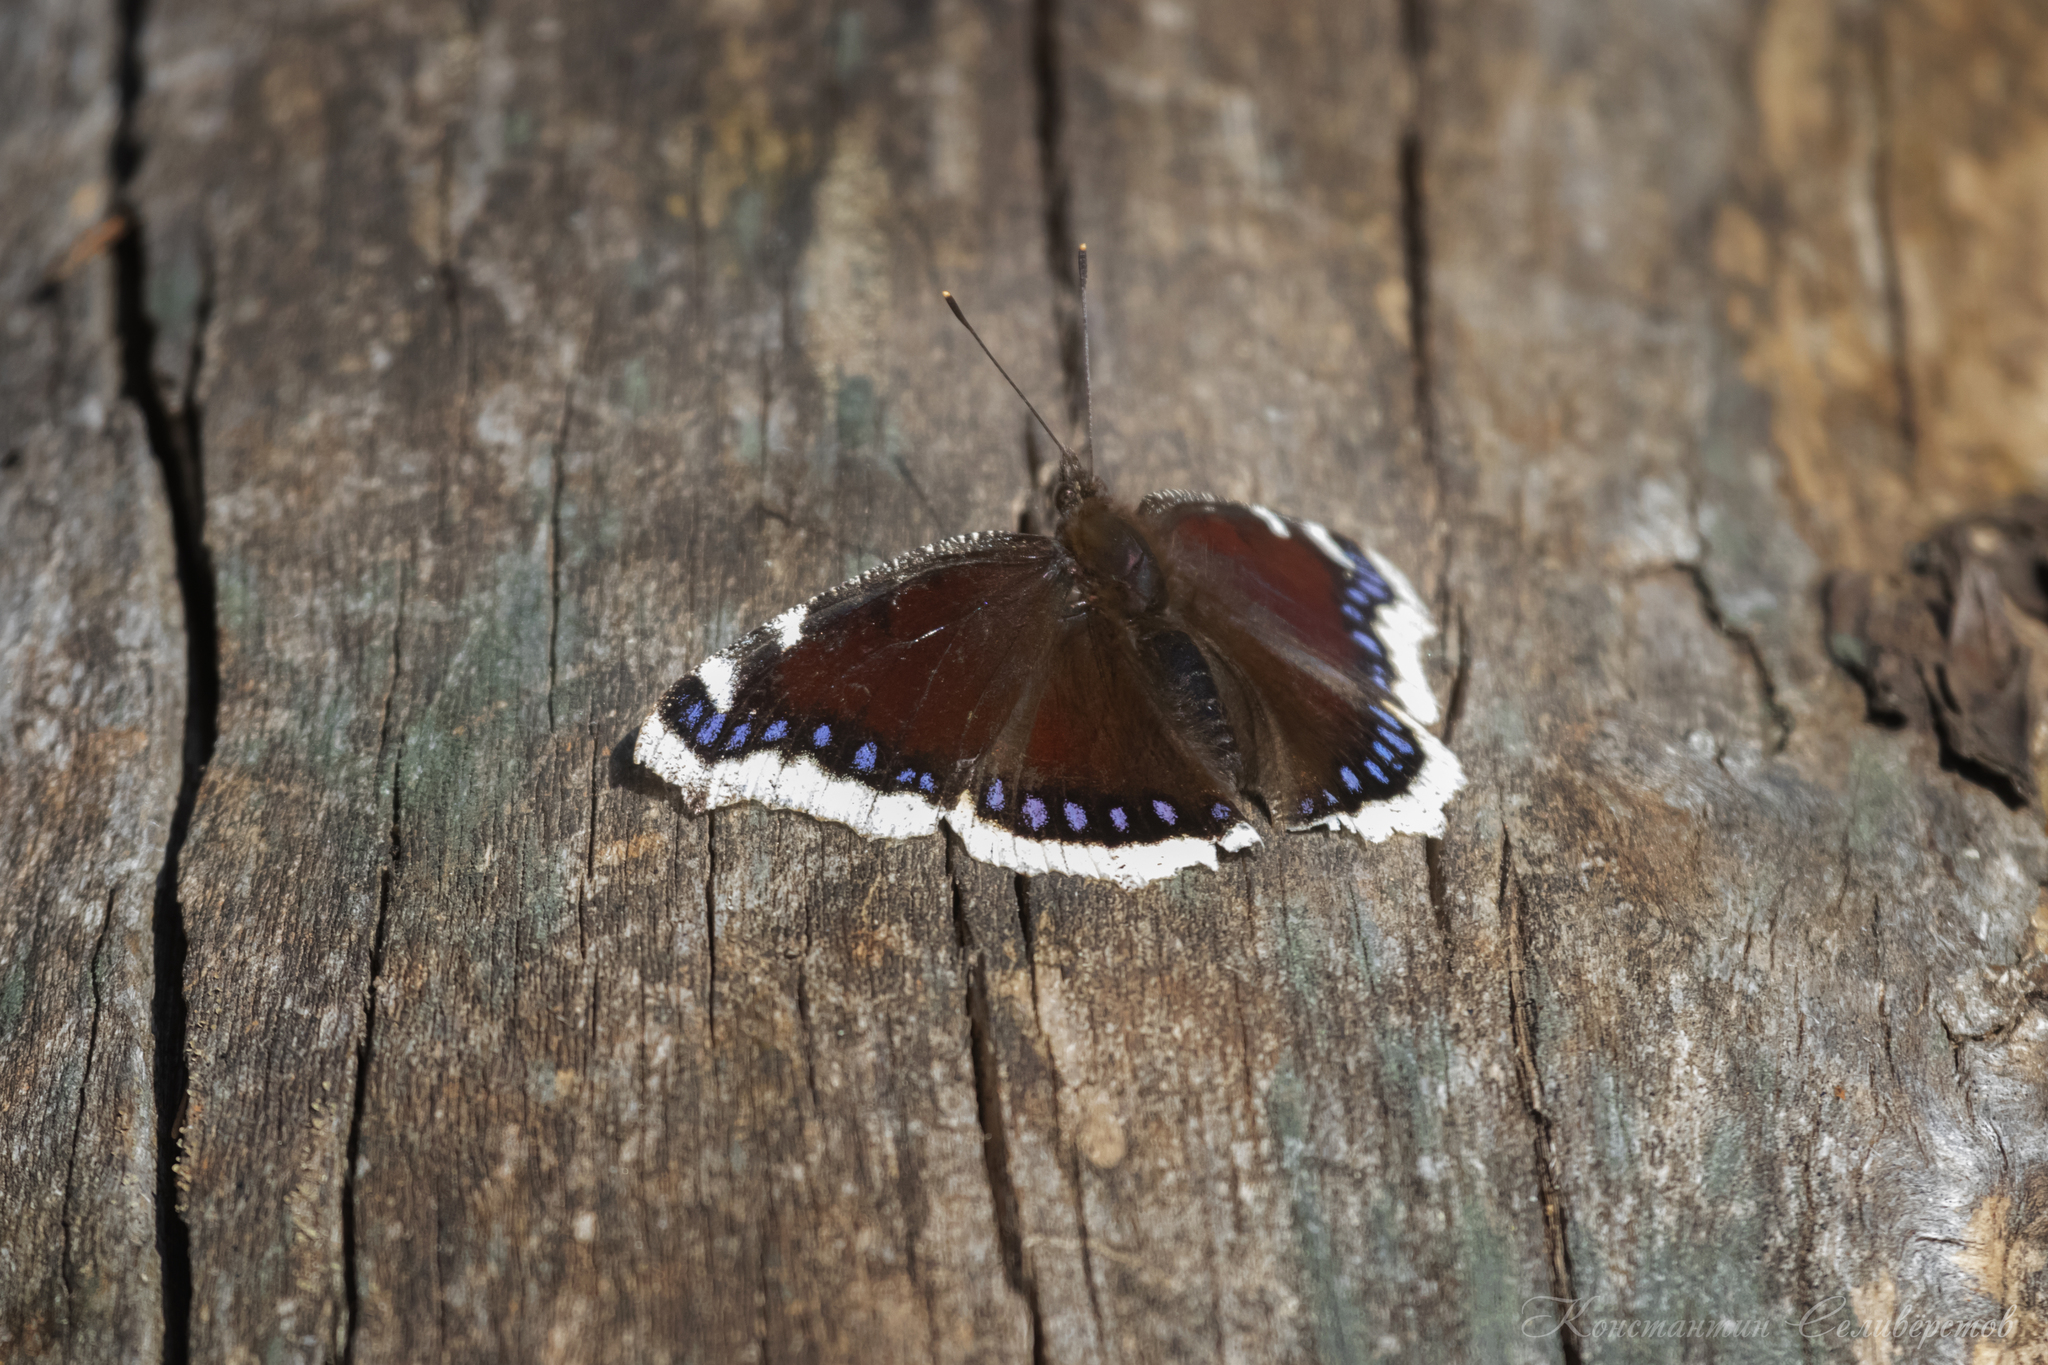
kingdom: Animalia
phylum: Arthropoda
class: Insecta
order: Lepidoptera
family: Nymphalidae
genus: Nymphalis
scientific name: Nymphalis antiopa
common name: Camberwell beauty
